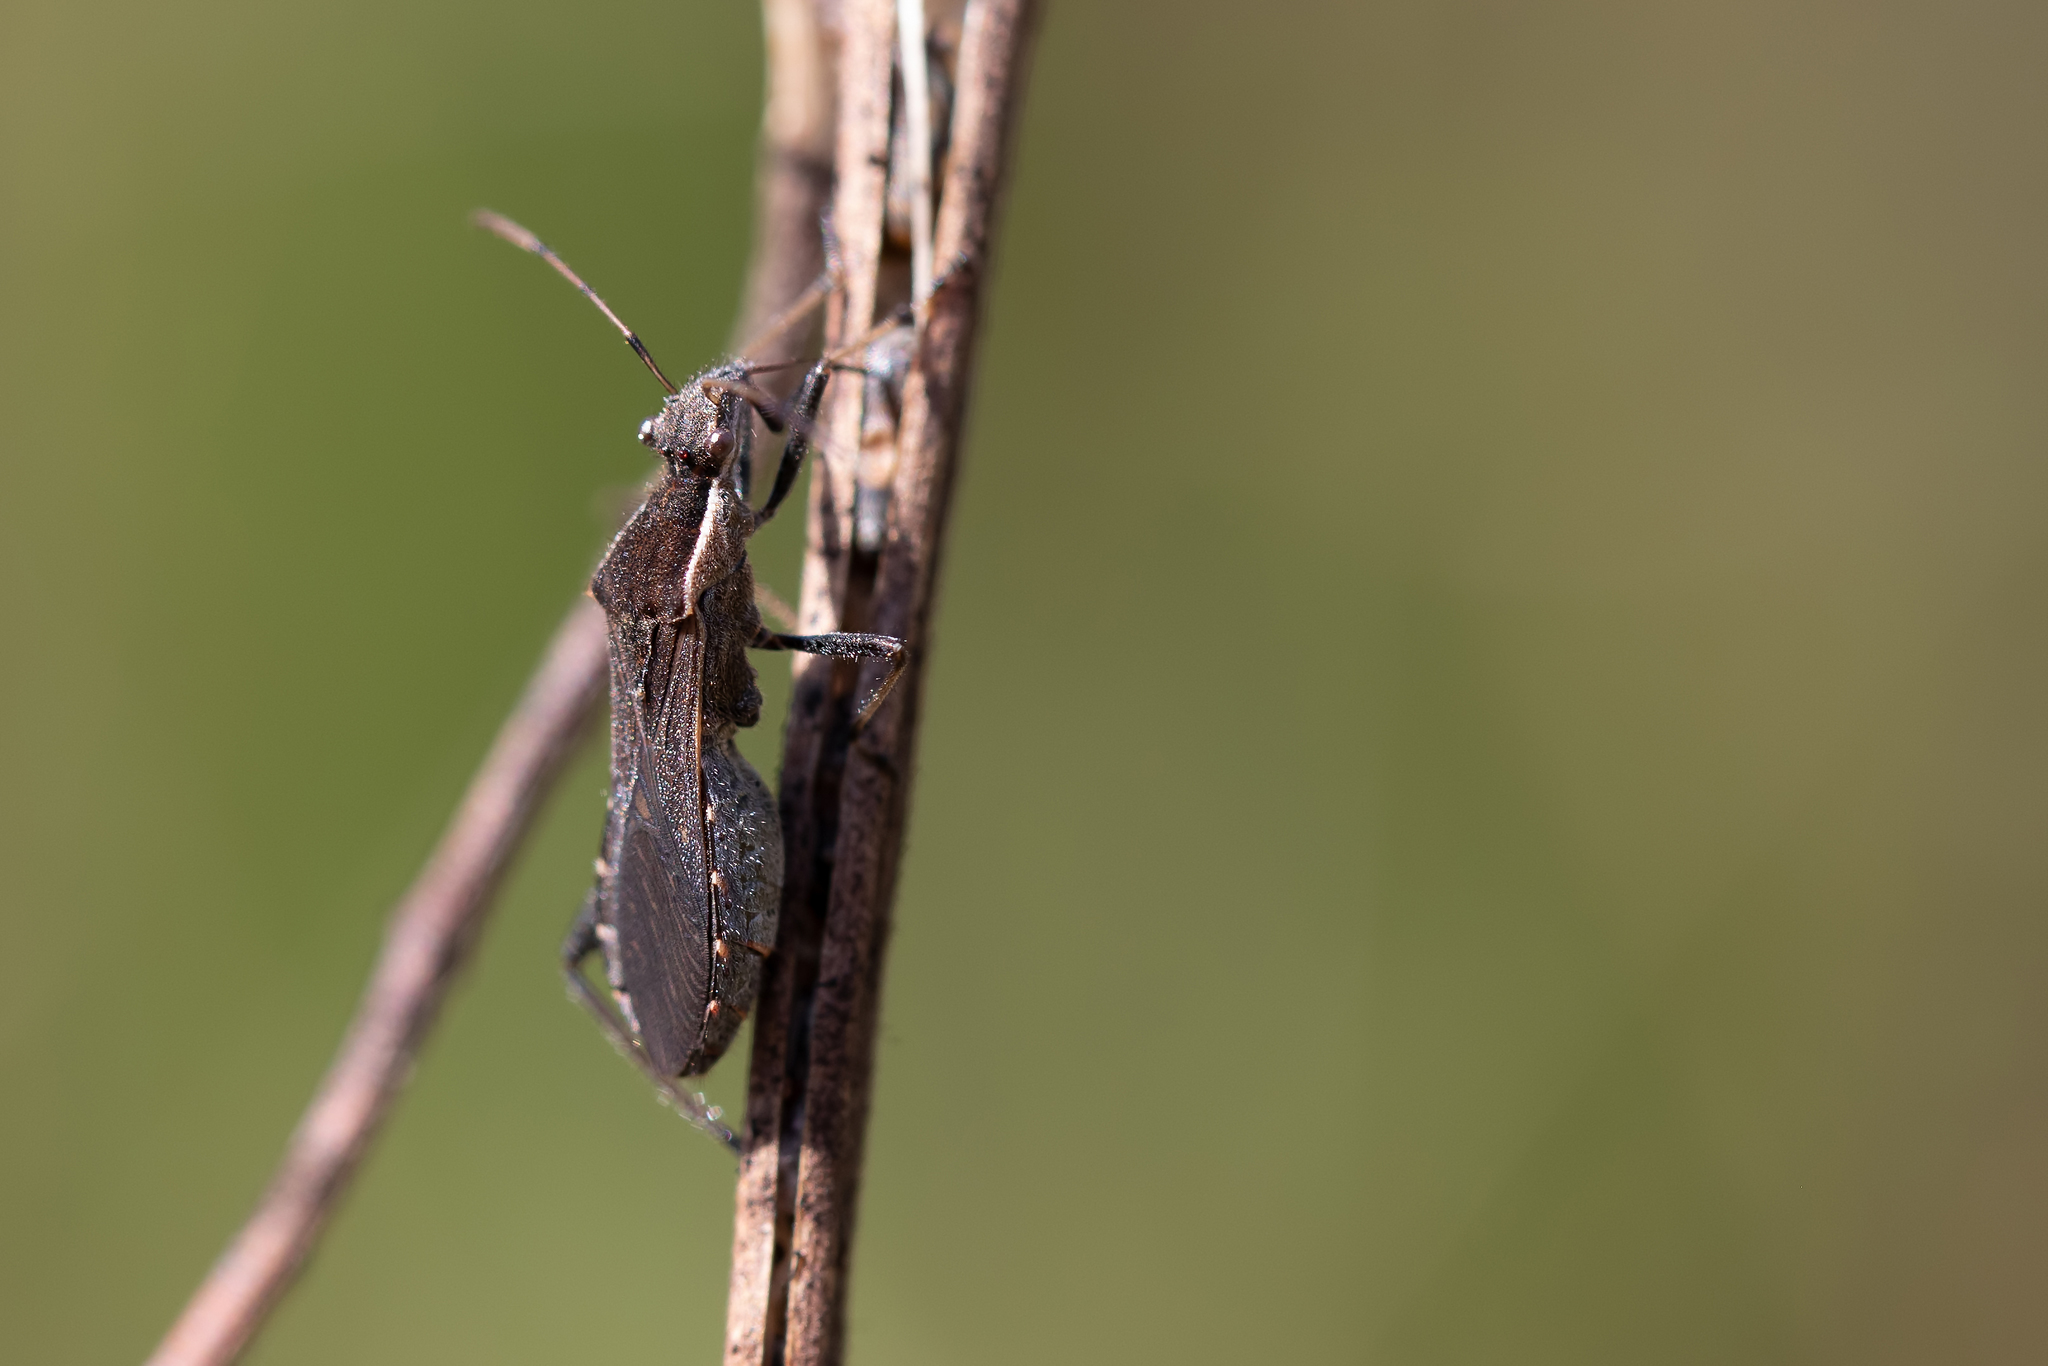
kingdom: Animalia
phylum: Arthropoda
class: Insecta
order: Hemiptera
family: Alydidae
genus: Alydus
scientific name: Alydus pilosulus
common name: Broad-headed bug
